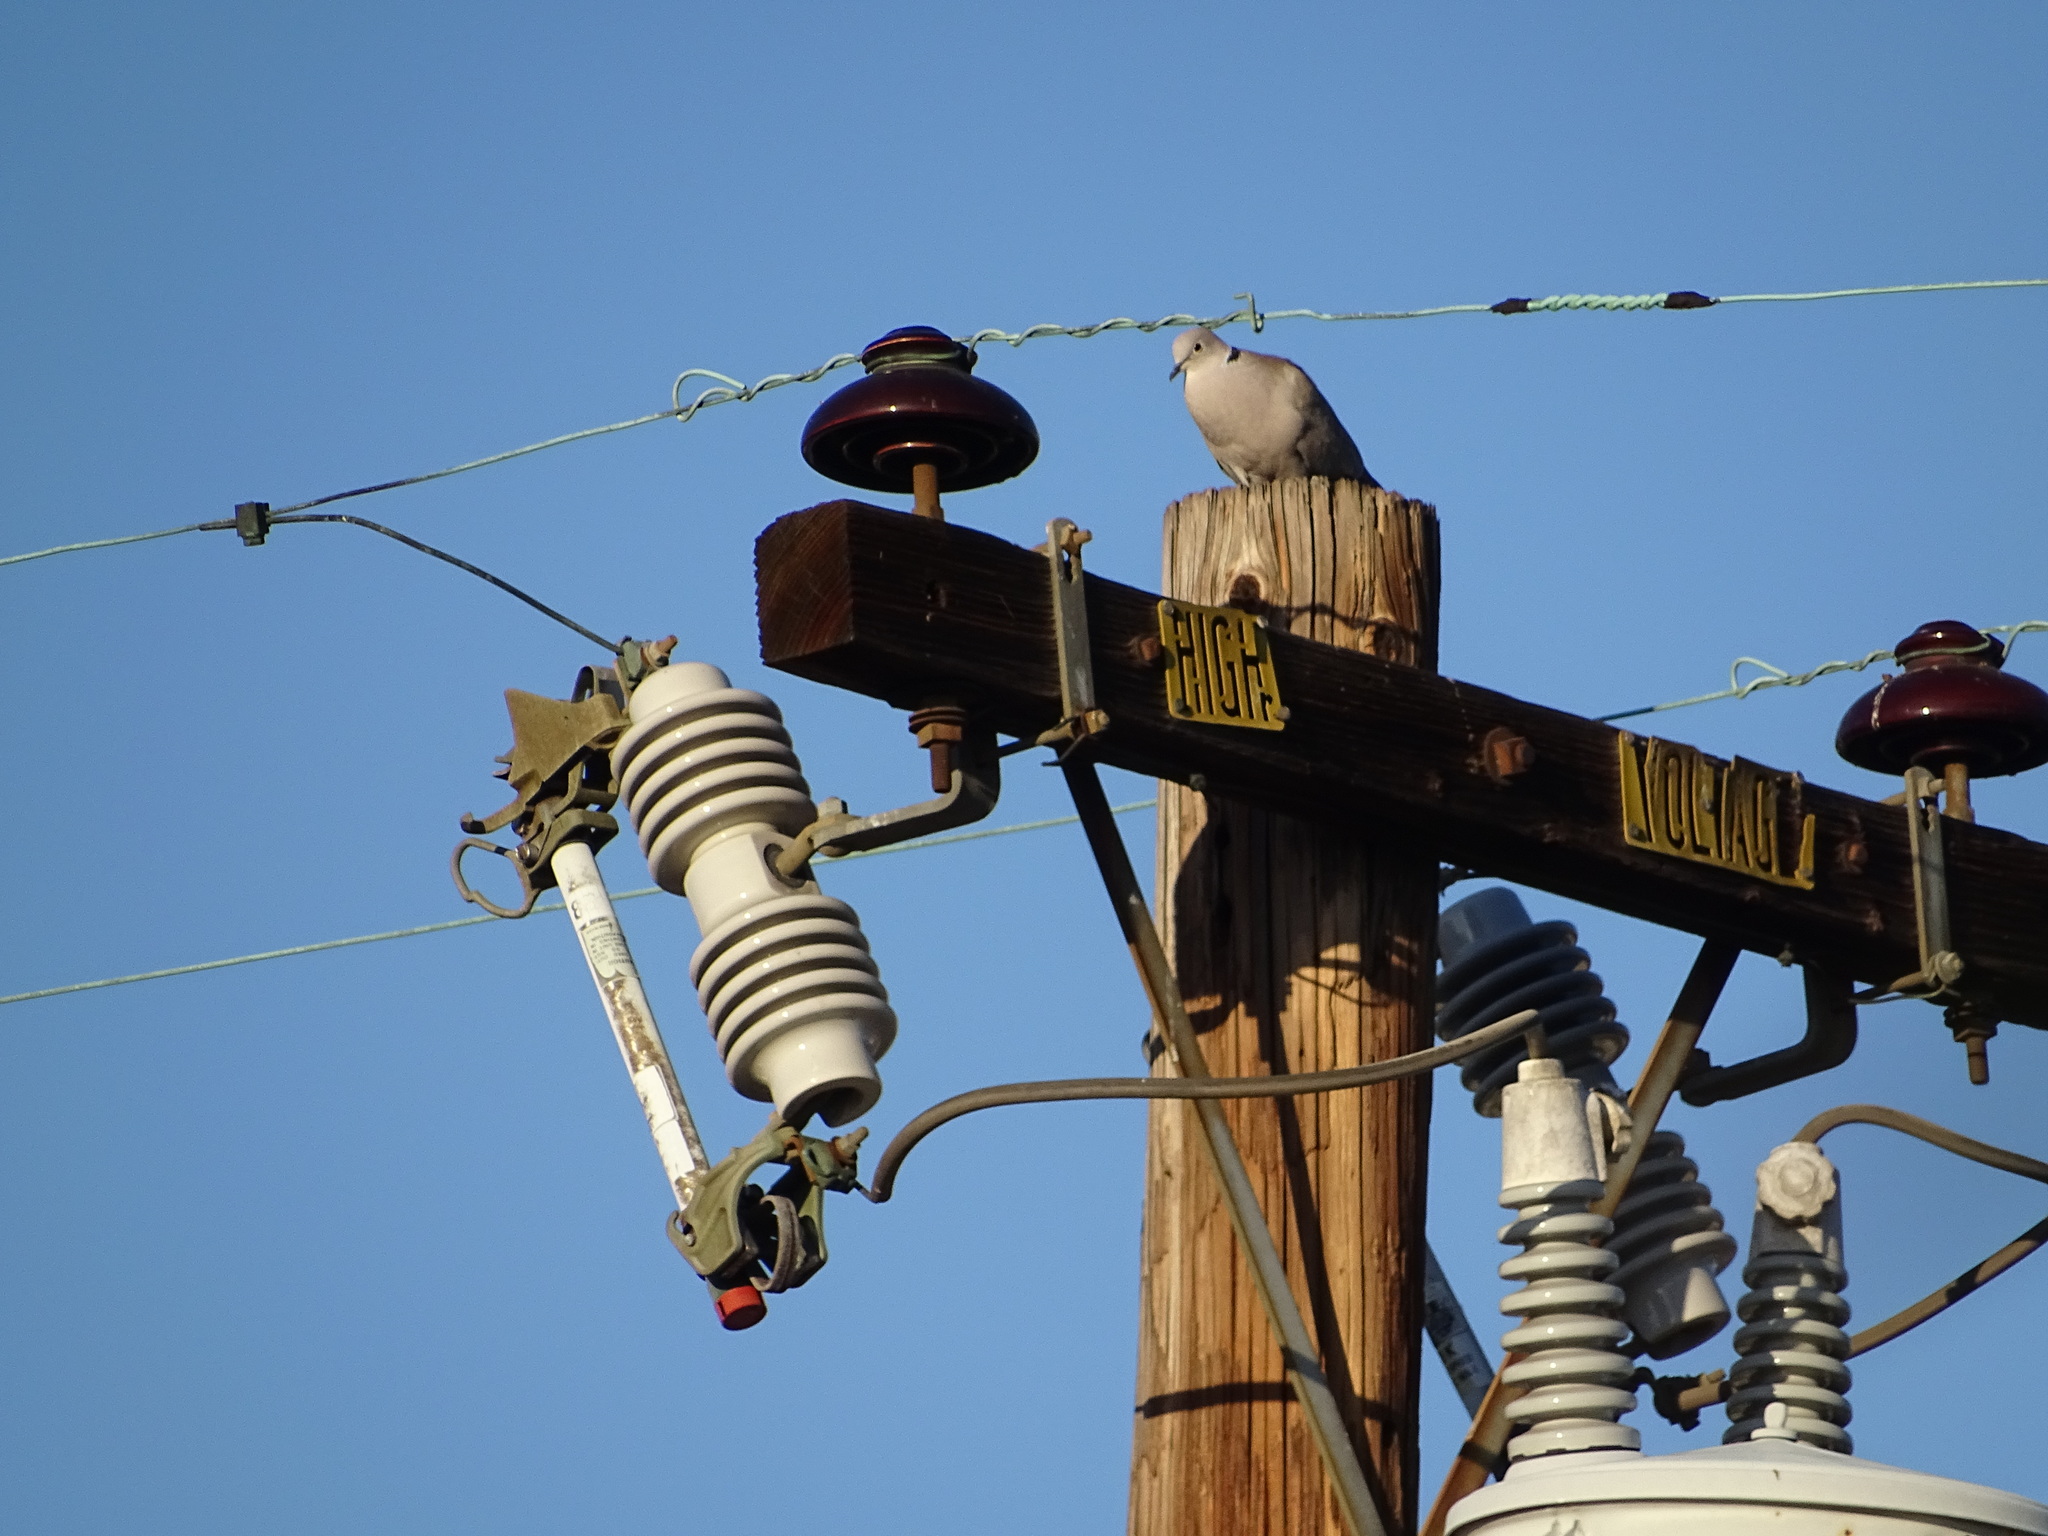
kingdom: Animalia
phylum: Chordata
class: Aves
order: Columbiformes
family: Columbidae
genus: Streptopelia
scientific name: Streptopelia decaocto
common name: Eurasian collared dove
